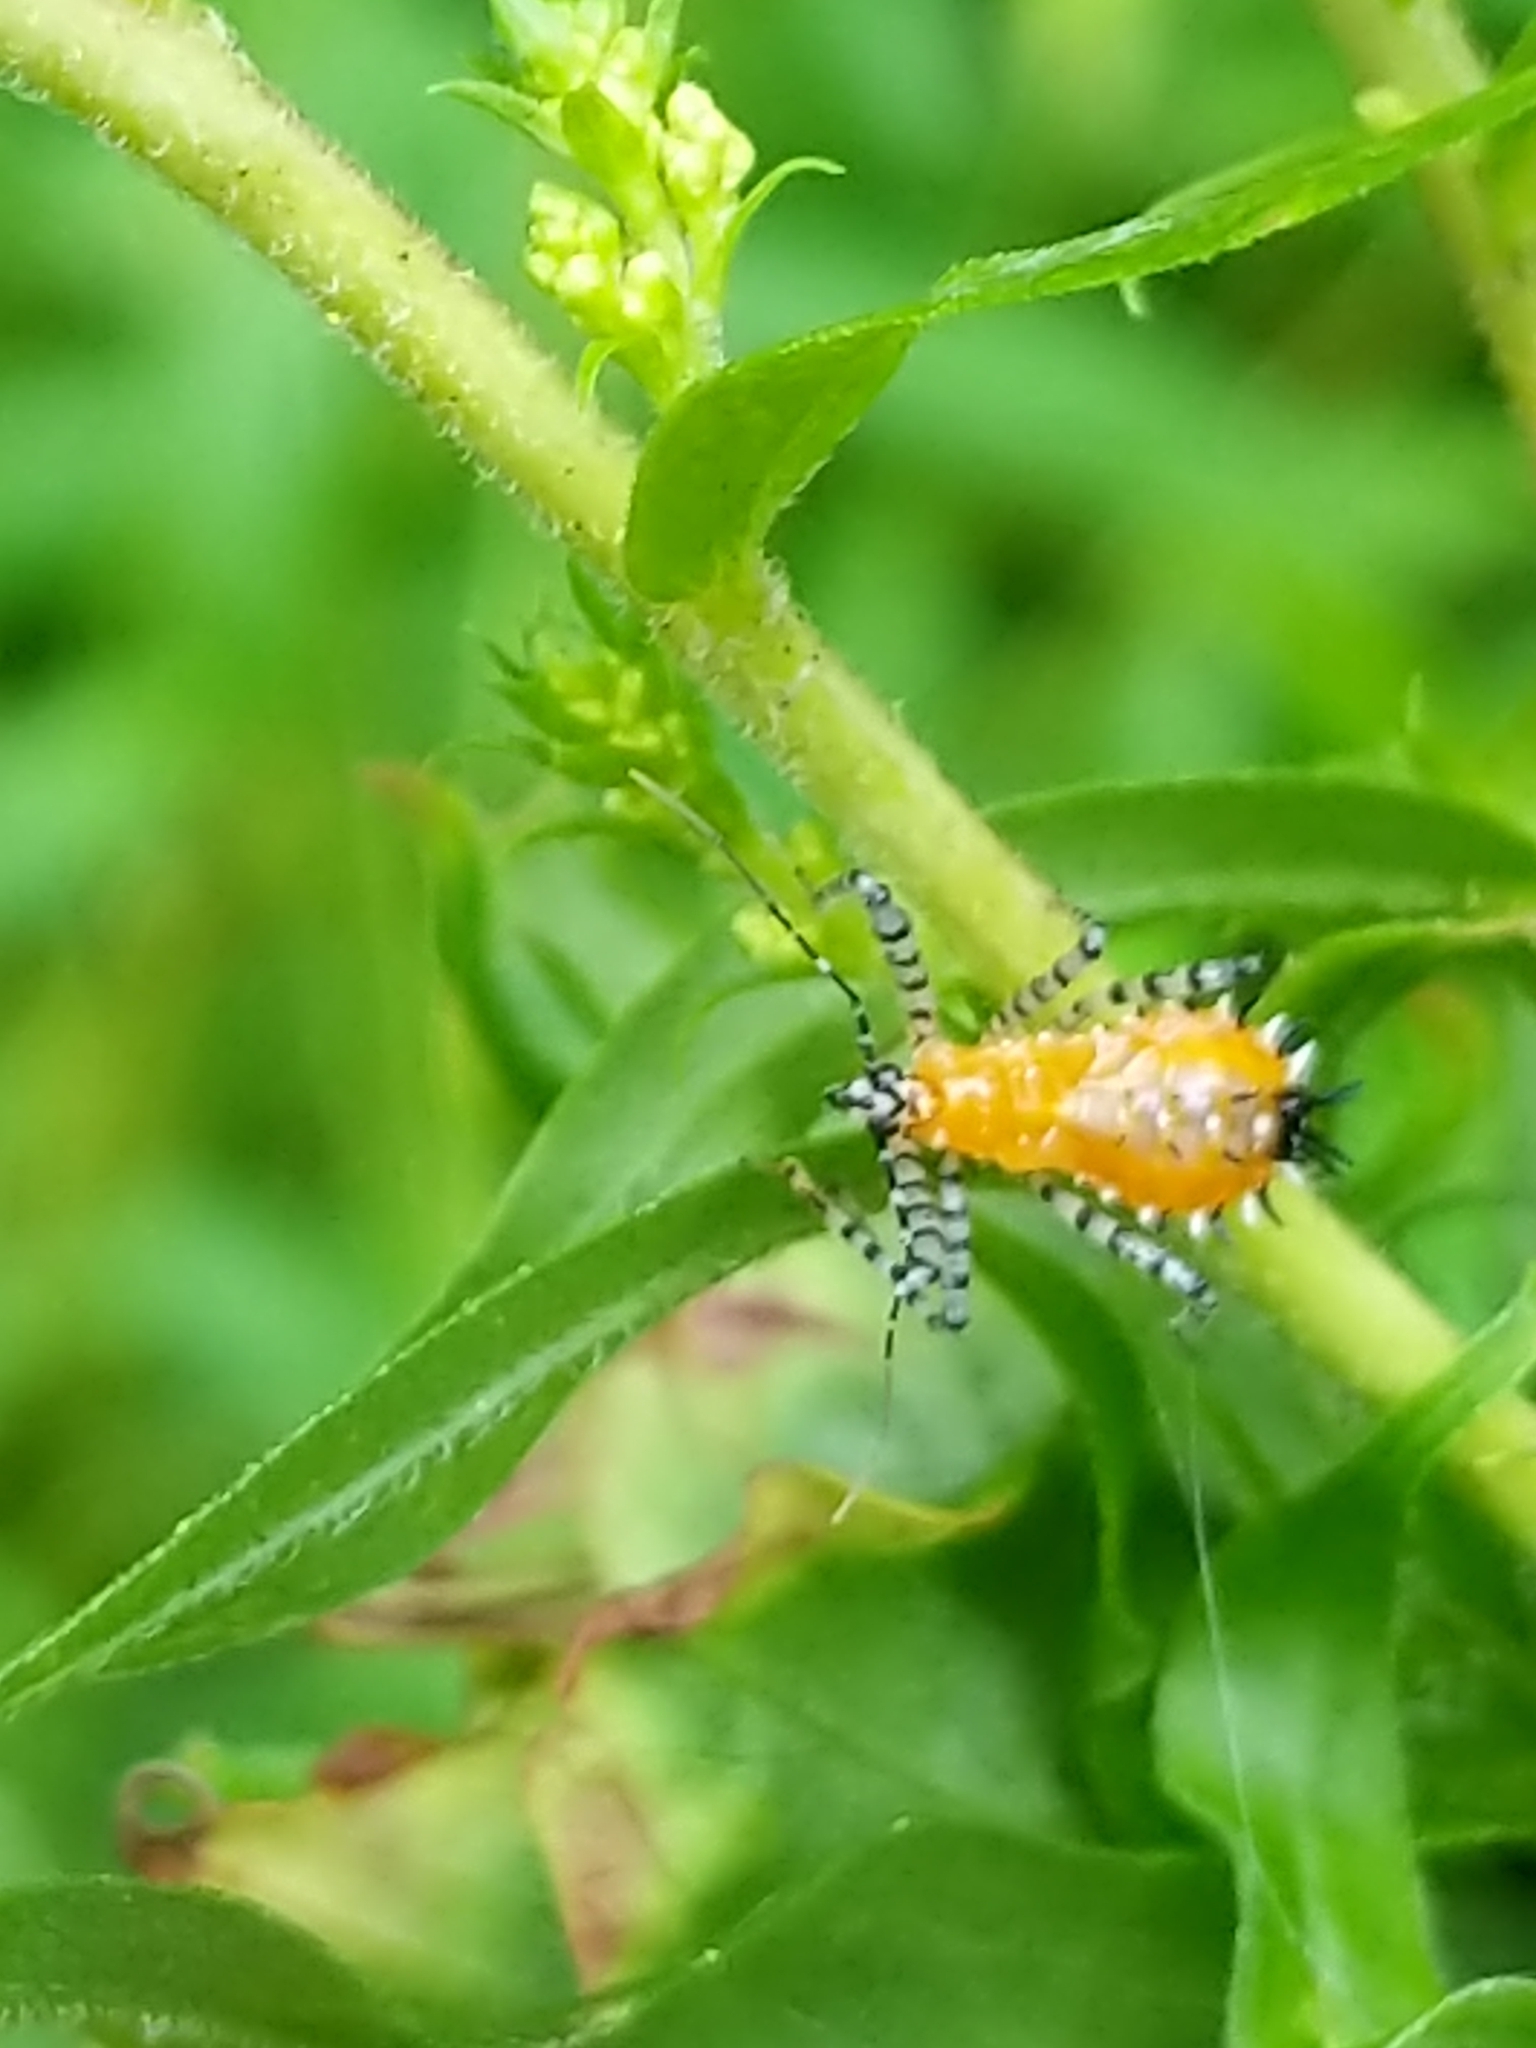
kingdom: Animalia
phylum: Arthropoda
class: Insecta
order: Hemiptera
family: Reduviidae
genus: Pselliopus
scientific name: Pselliopus cinctus
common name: Ringed assassin bug
